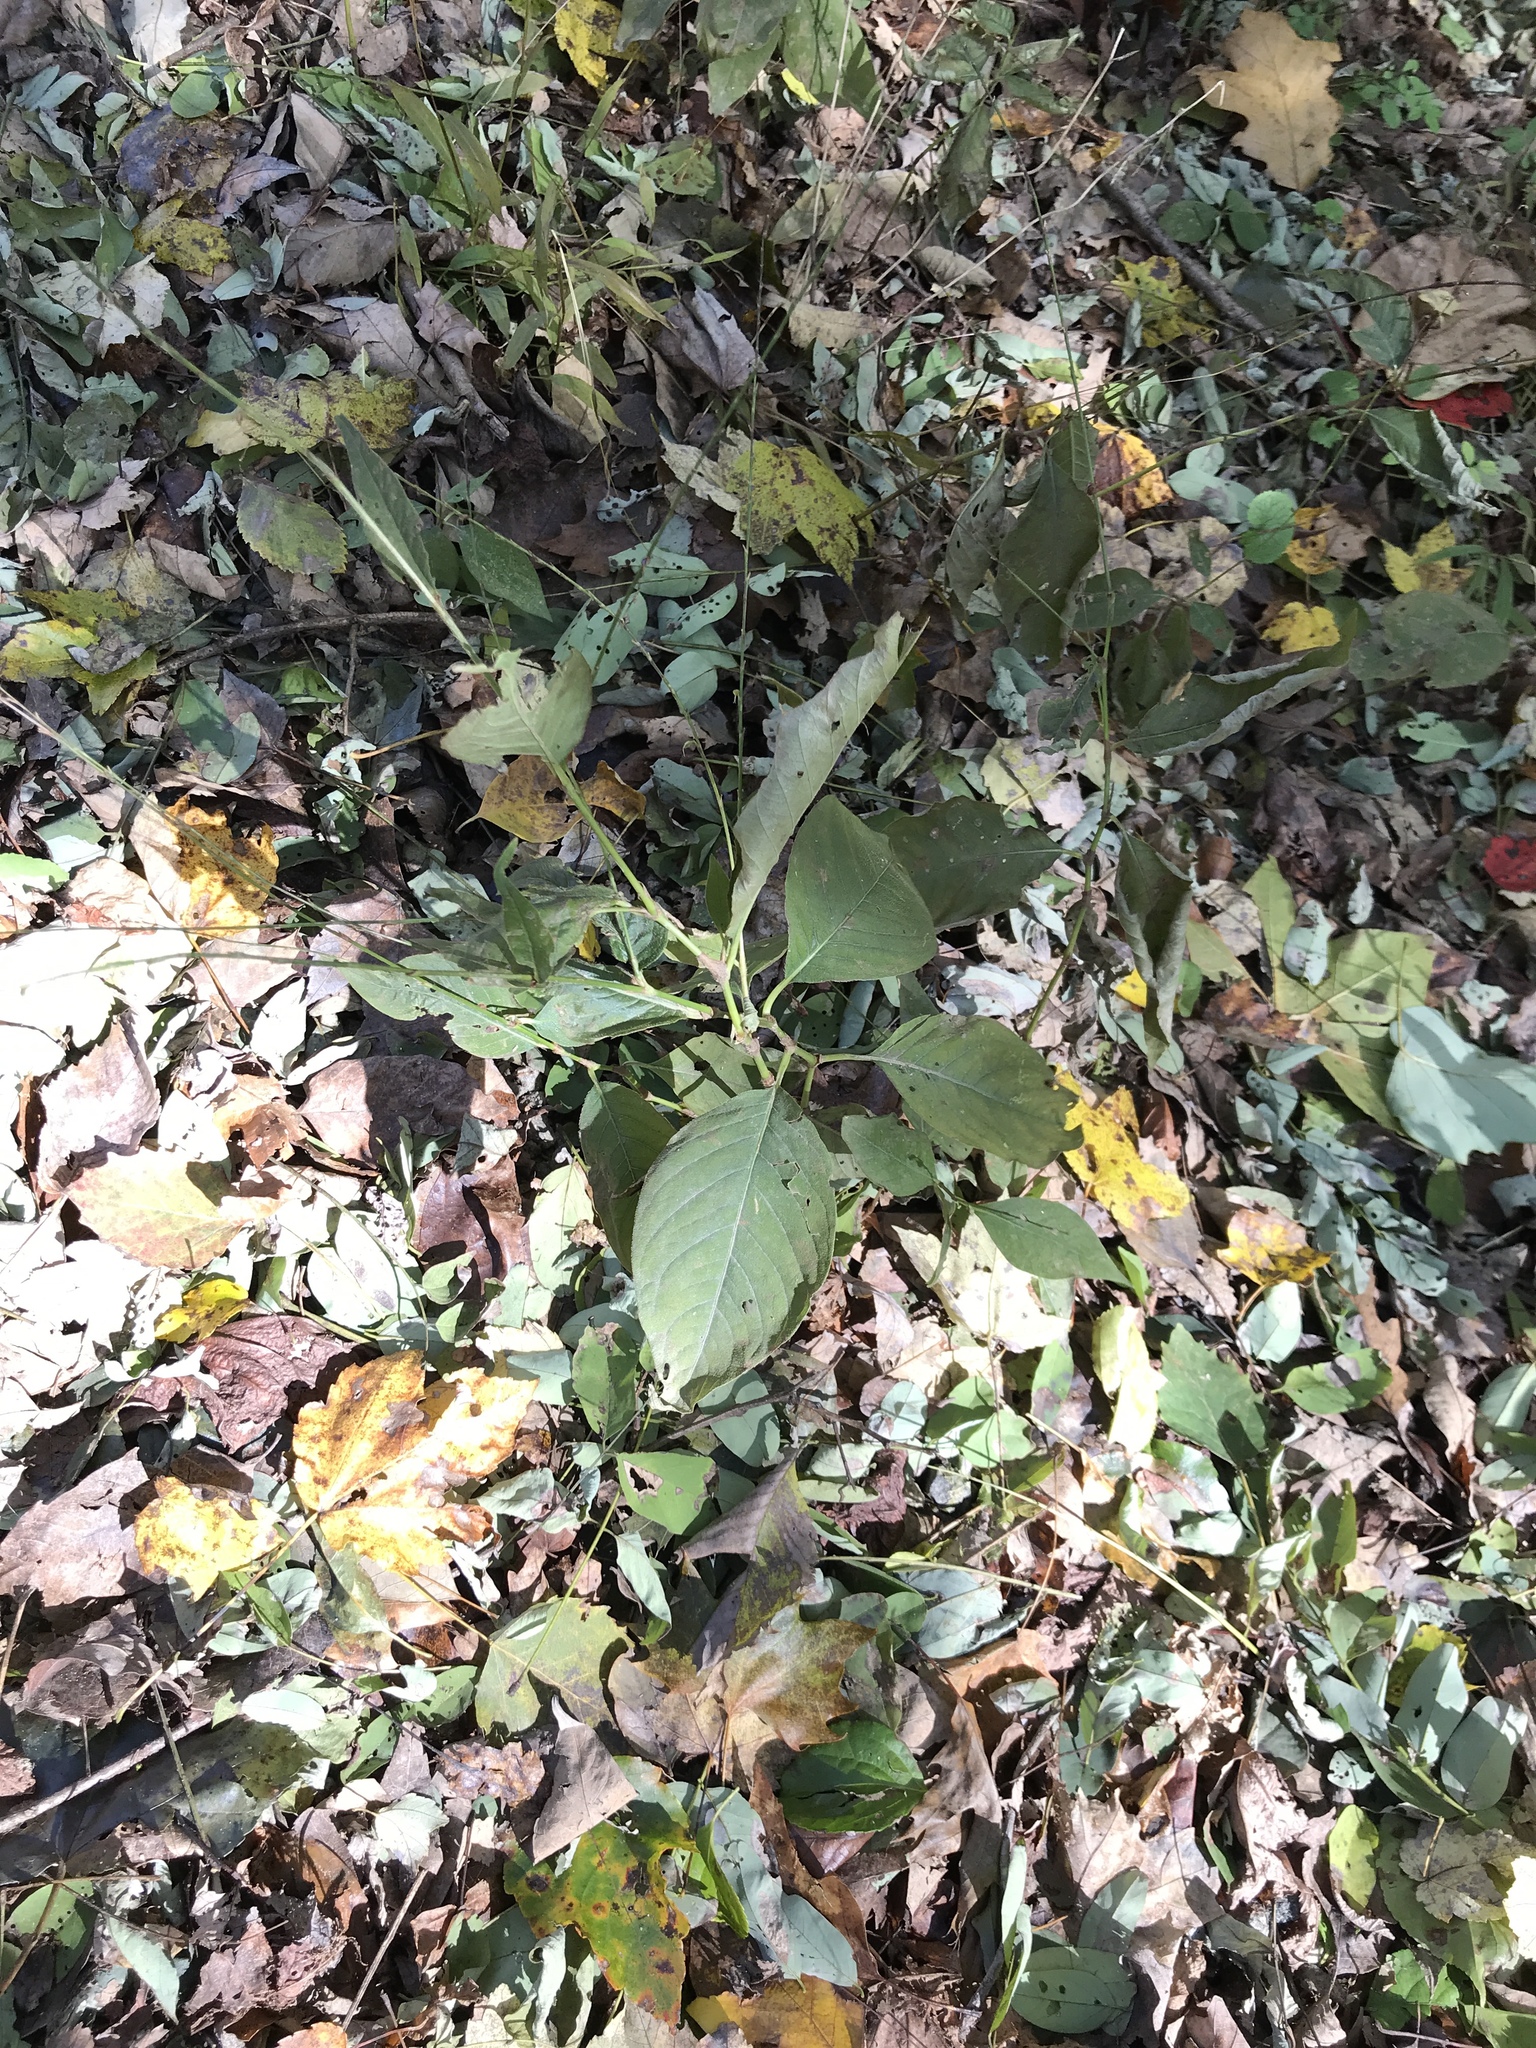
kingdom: Plantae
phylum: Tracheophyta
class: Magnoliopsida
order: Caryophyllales
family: Polygonaceae
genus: Persicaria
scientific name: Persicaria virginiana
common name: Jumpseed
